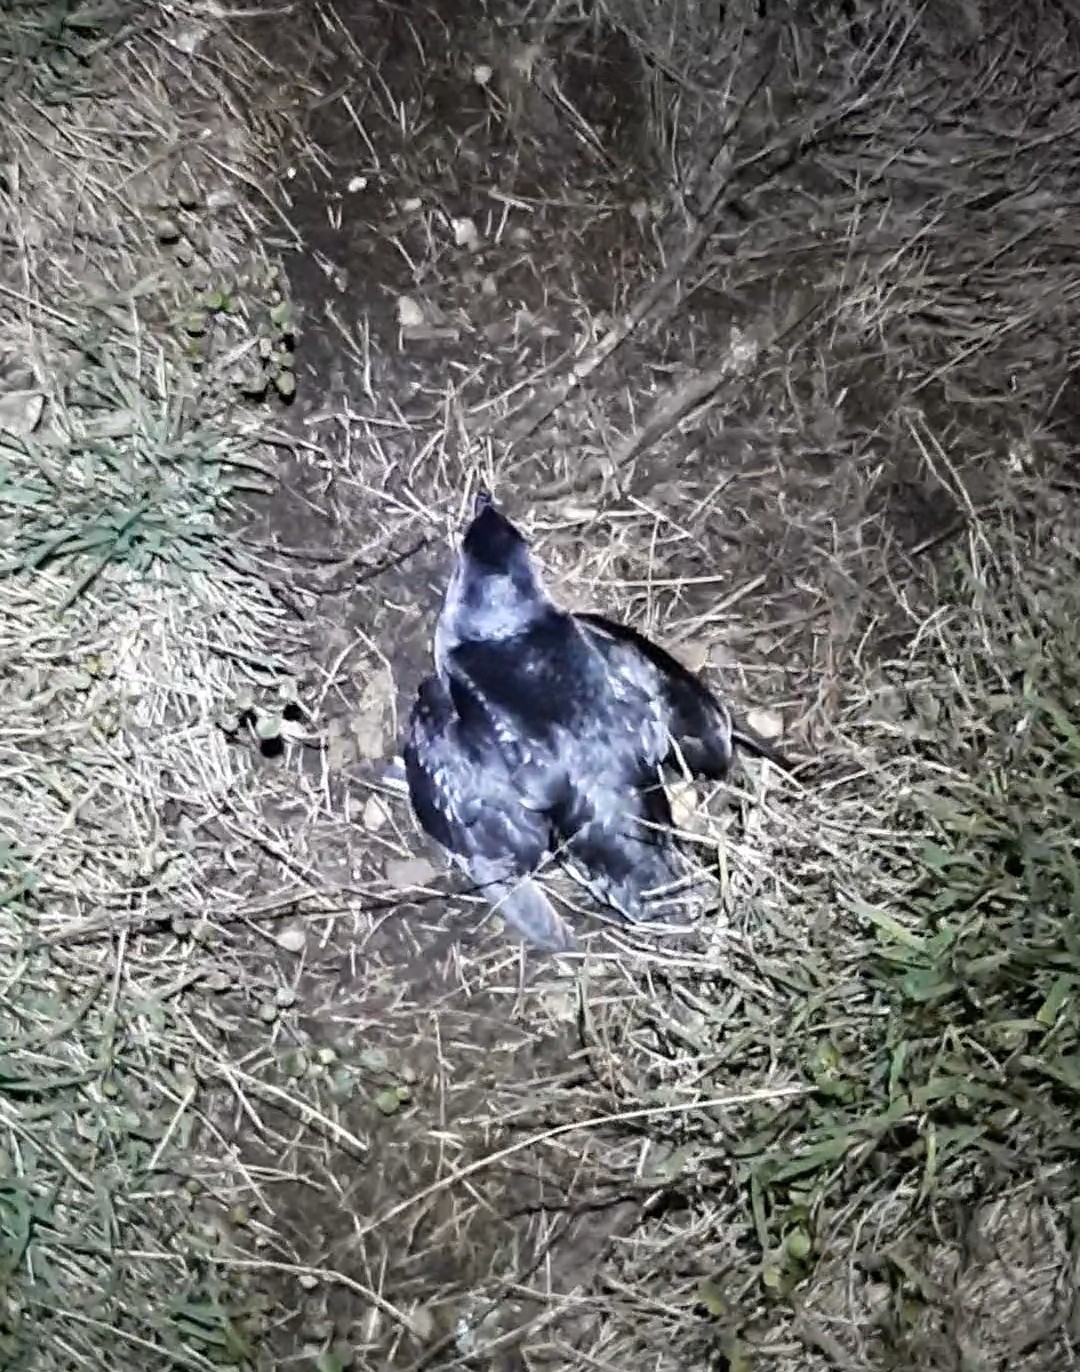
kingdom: Animalia
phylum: Chordata
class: Aves
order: Procellariiformes
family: Pelecanoididae
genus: Pelecanoides
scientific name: Pelecanoides urinatrix
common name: Common diving-petrel
